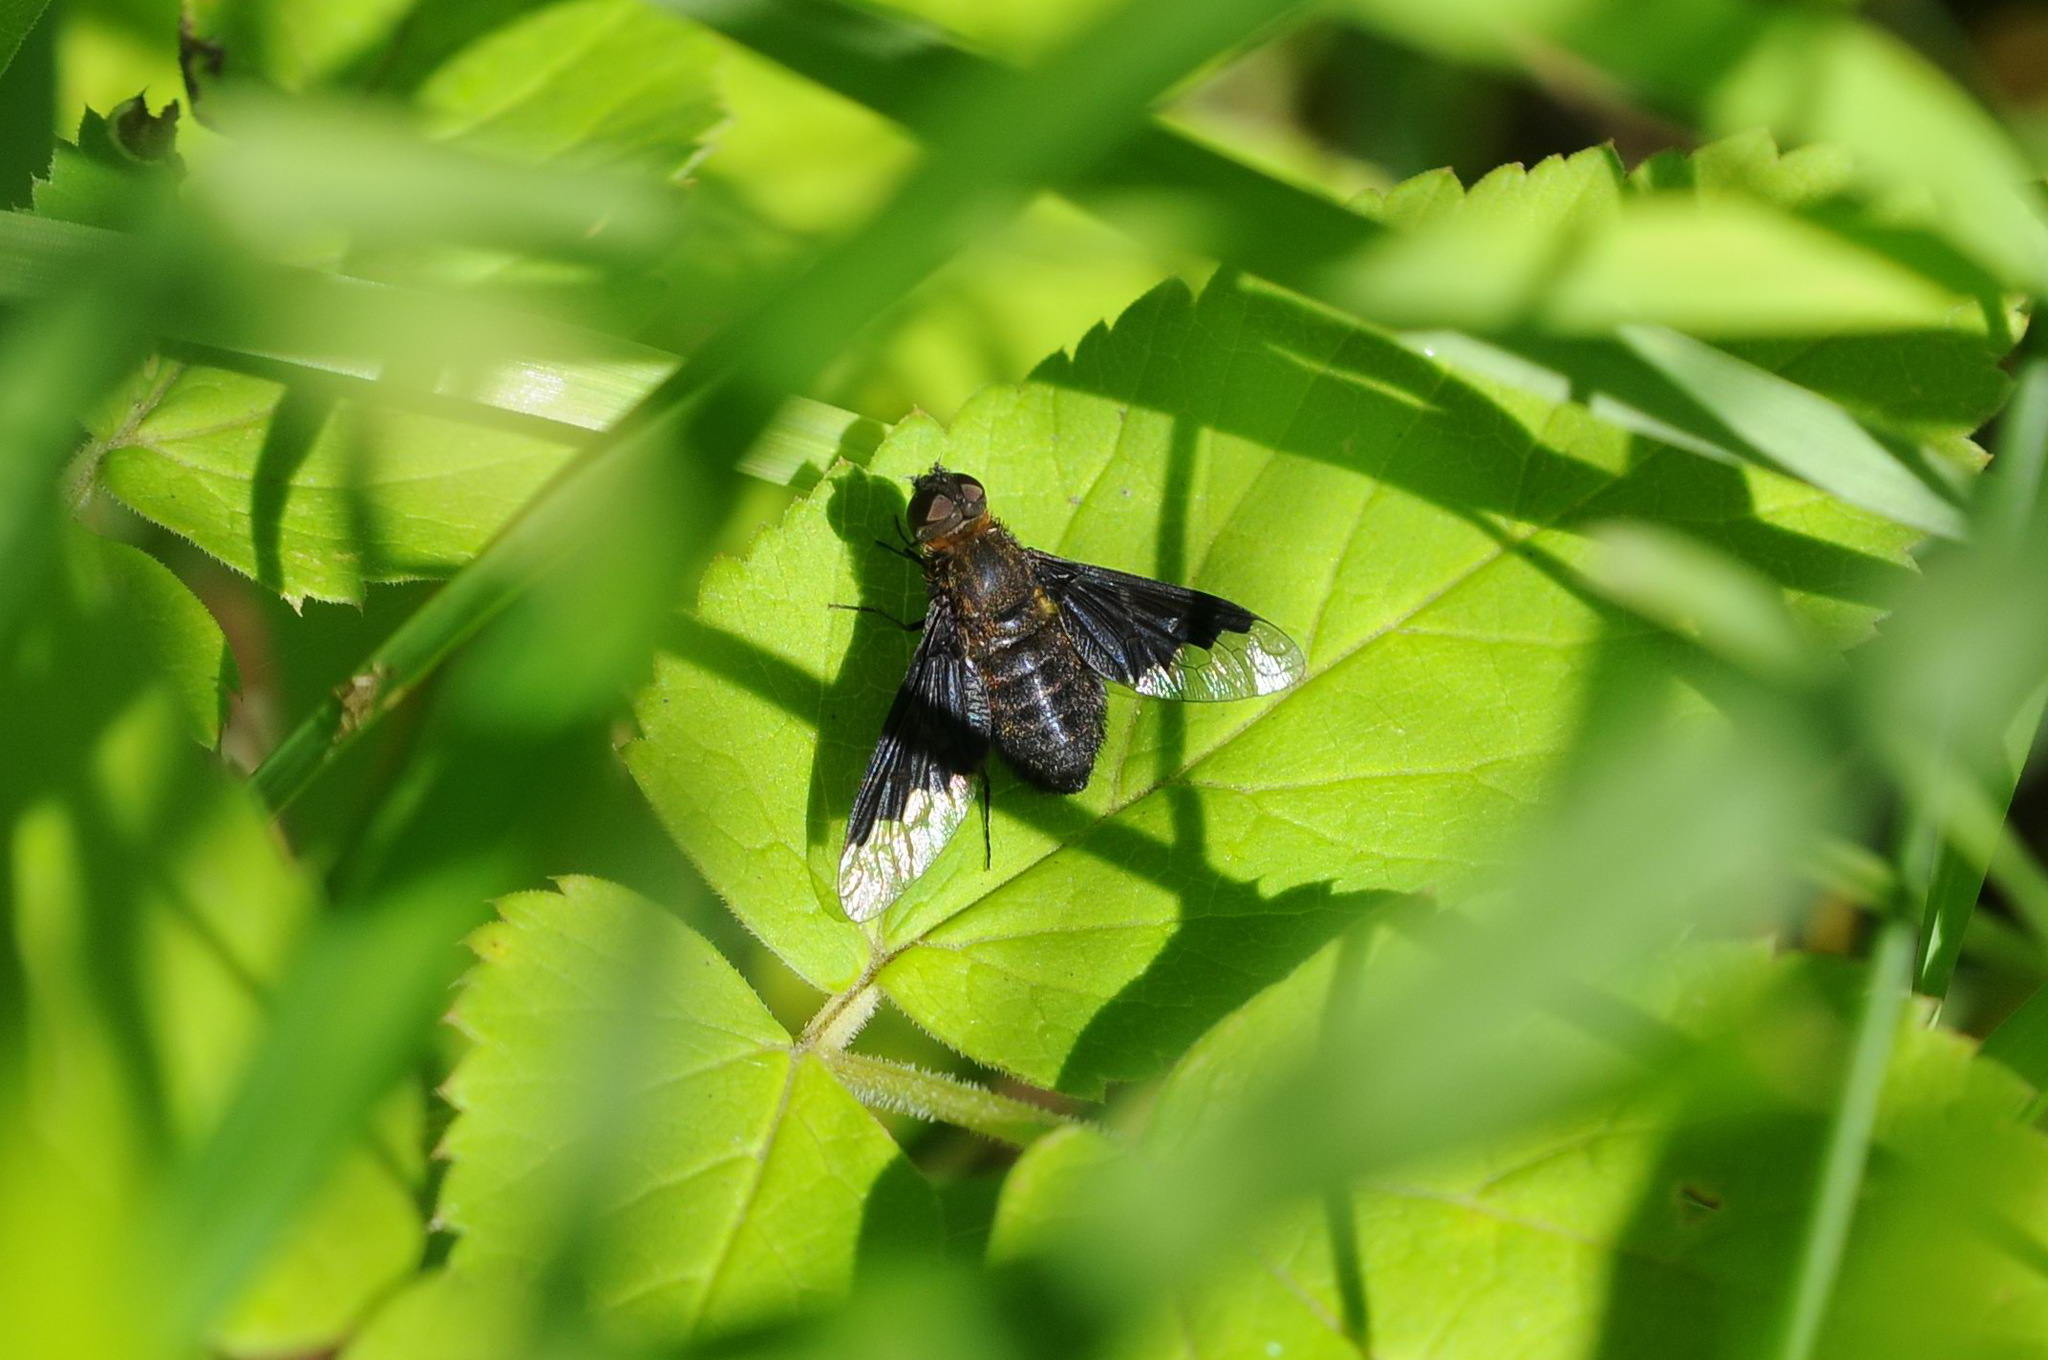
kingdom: Animalia
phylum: Arthropoda
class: Insecta
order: Diptera
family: Bombyliidae
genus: Hemipenthes
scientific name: Hemipenthes morio
